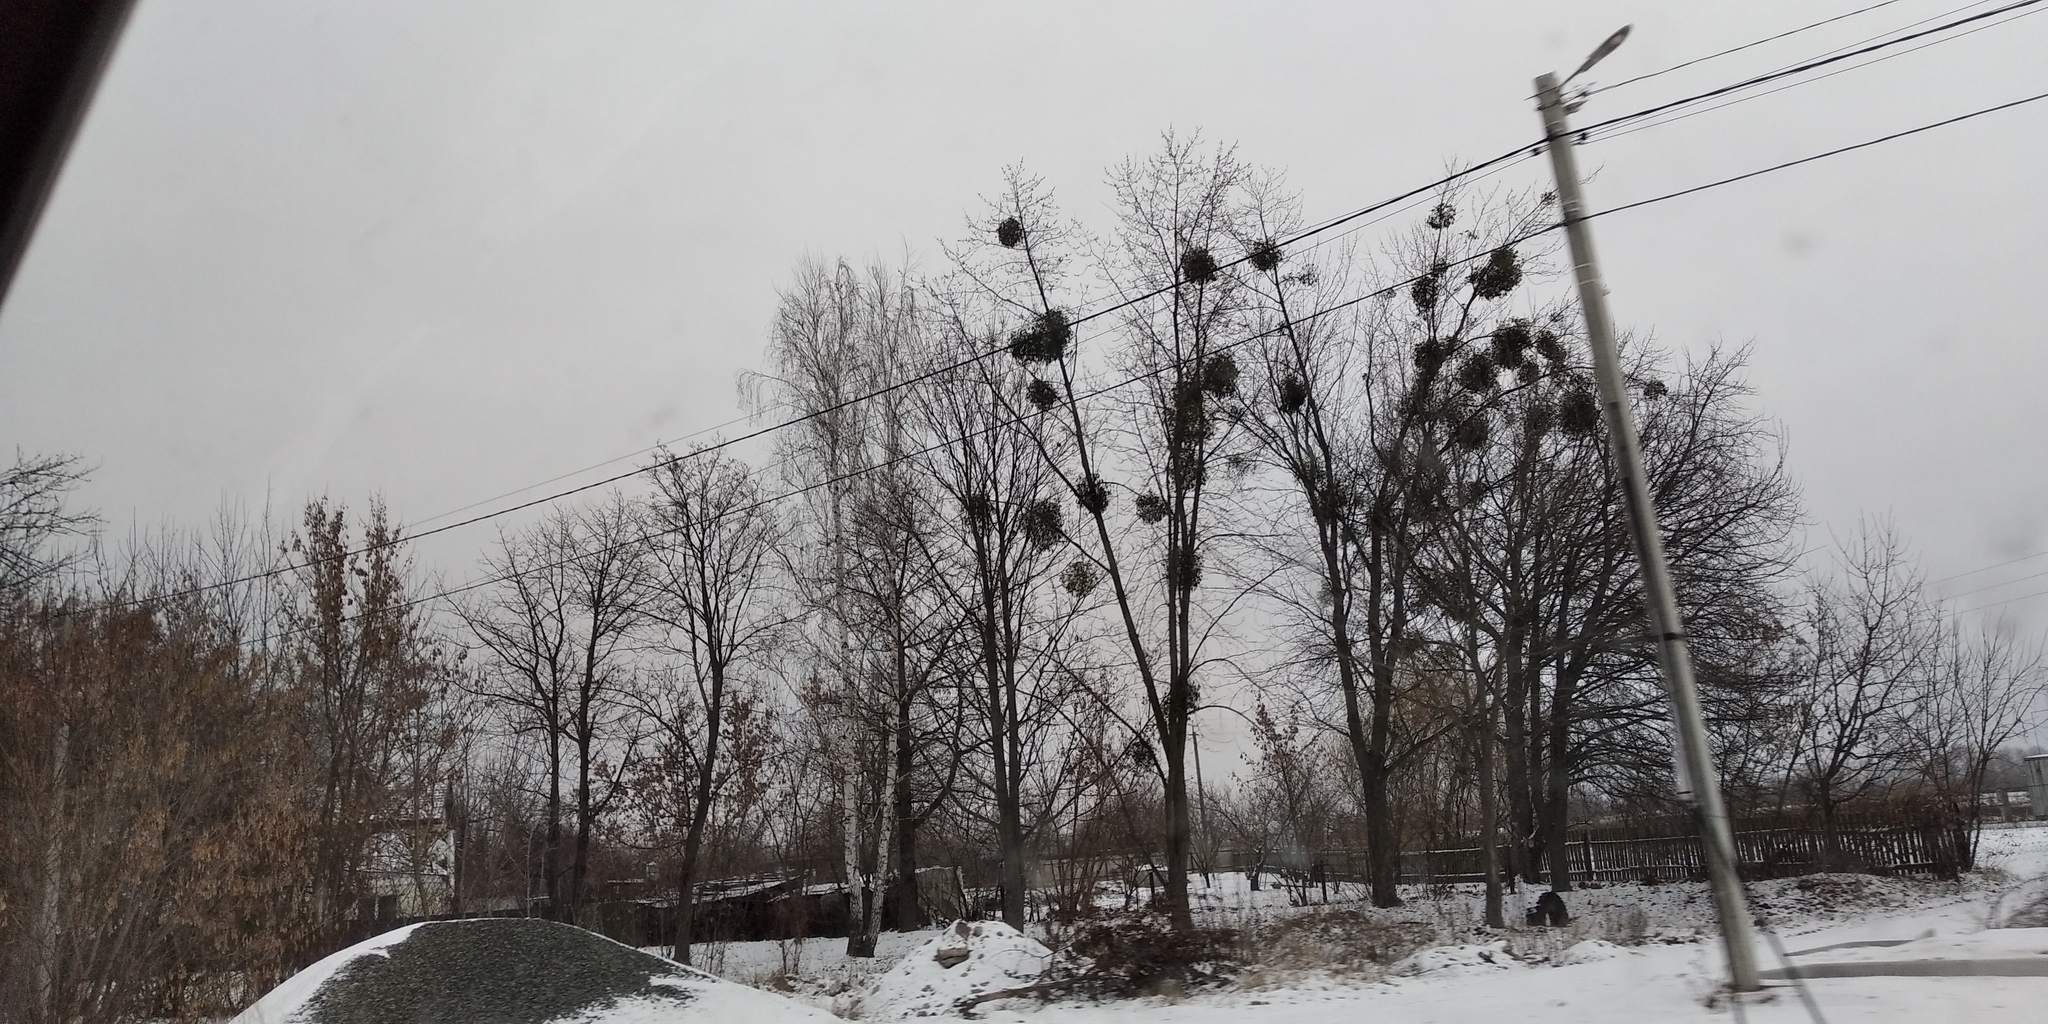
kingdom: Plantae
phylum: Tracheophyta
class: Magnoliopsida
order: Santalales
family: Viscaceae
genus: Viscum
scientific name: Viscum album
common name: Mistletoe
